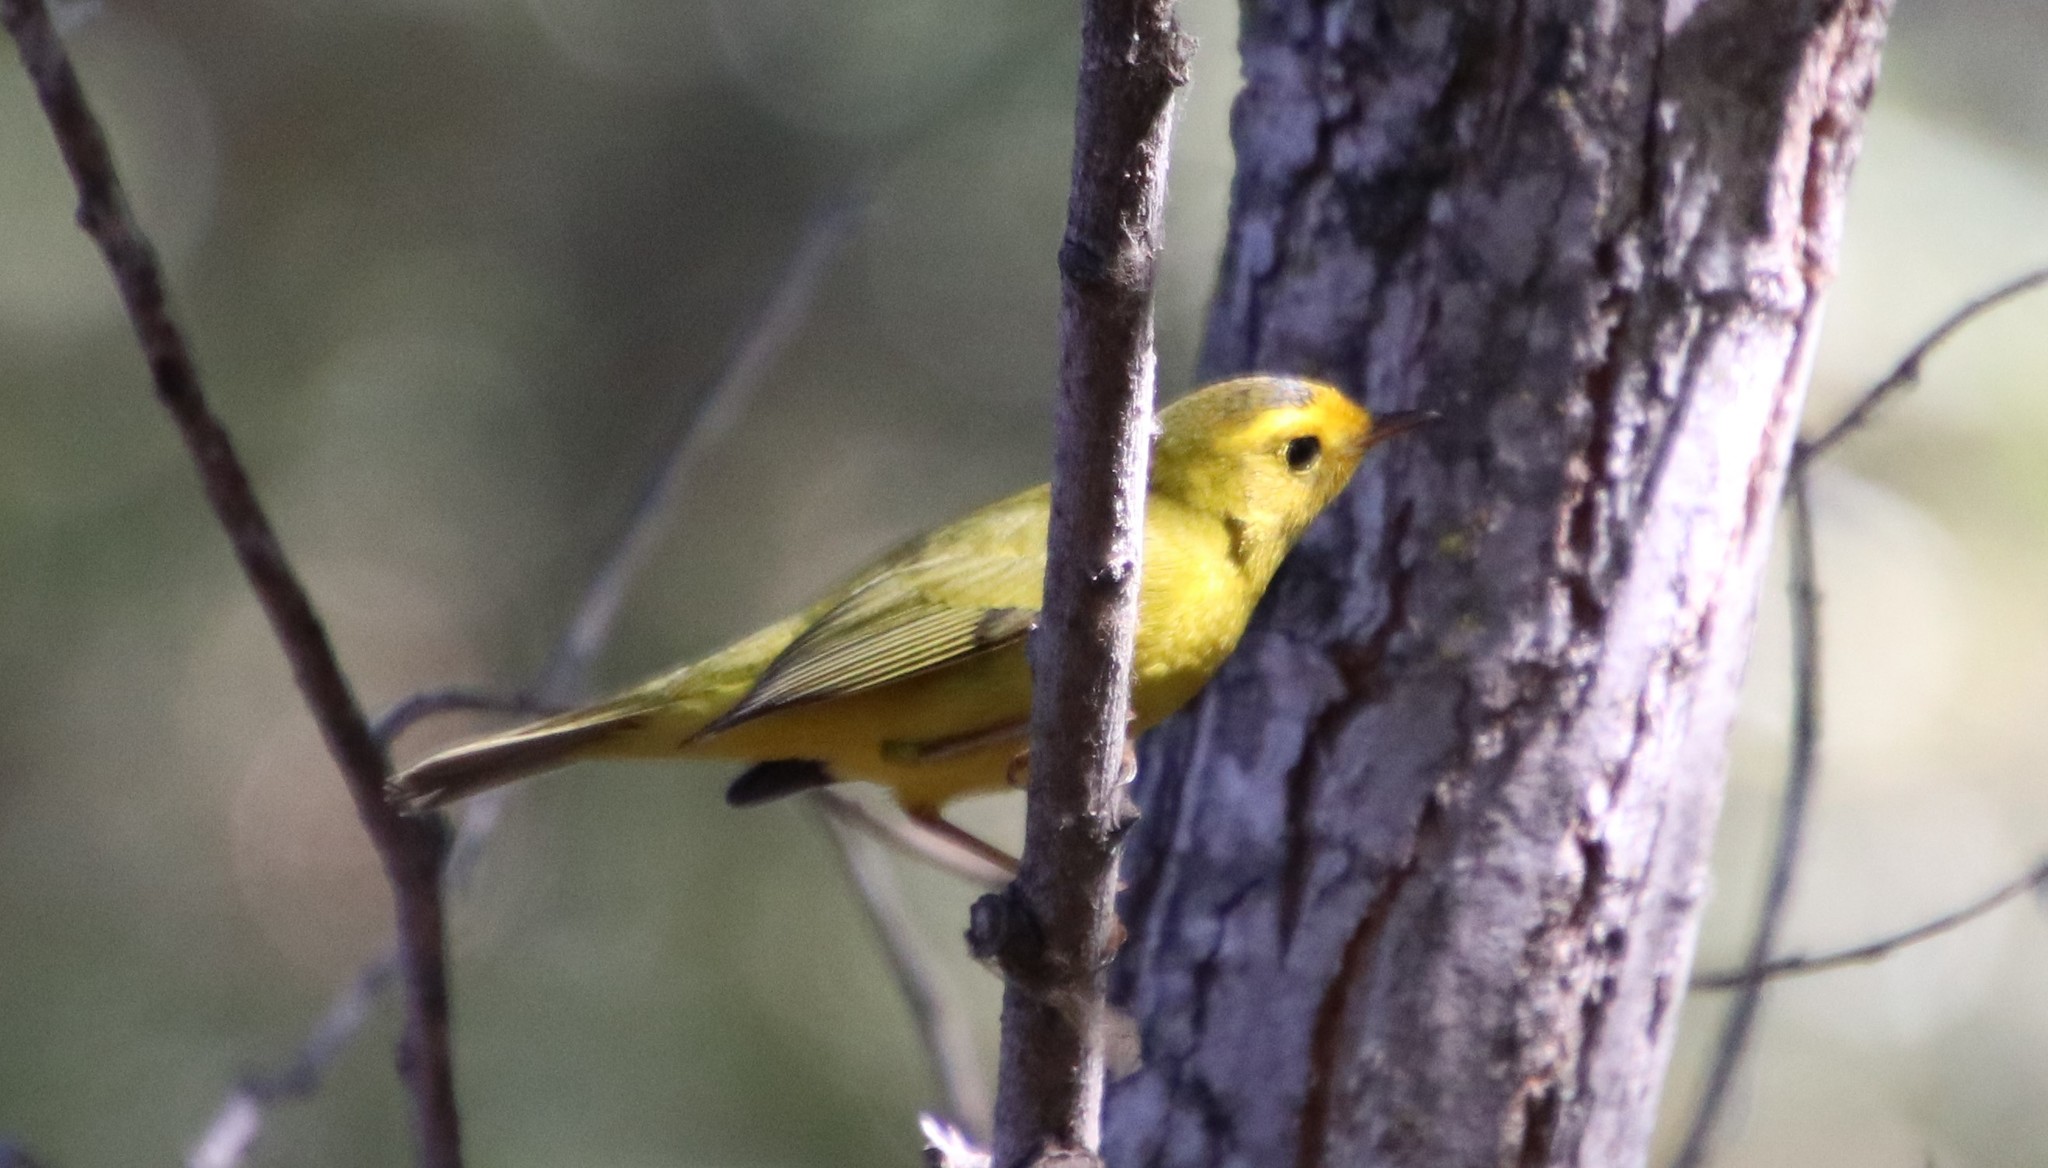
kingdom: Animalia
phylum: Chordata
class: Aves
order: Passeriformes
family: Parulidae
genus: Cardellina
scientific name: Cardellina pusilla
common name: Wilson's warbler
